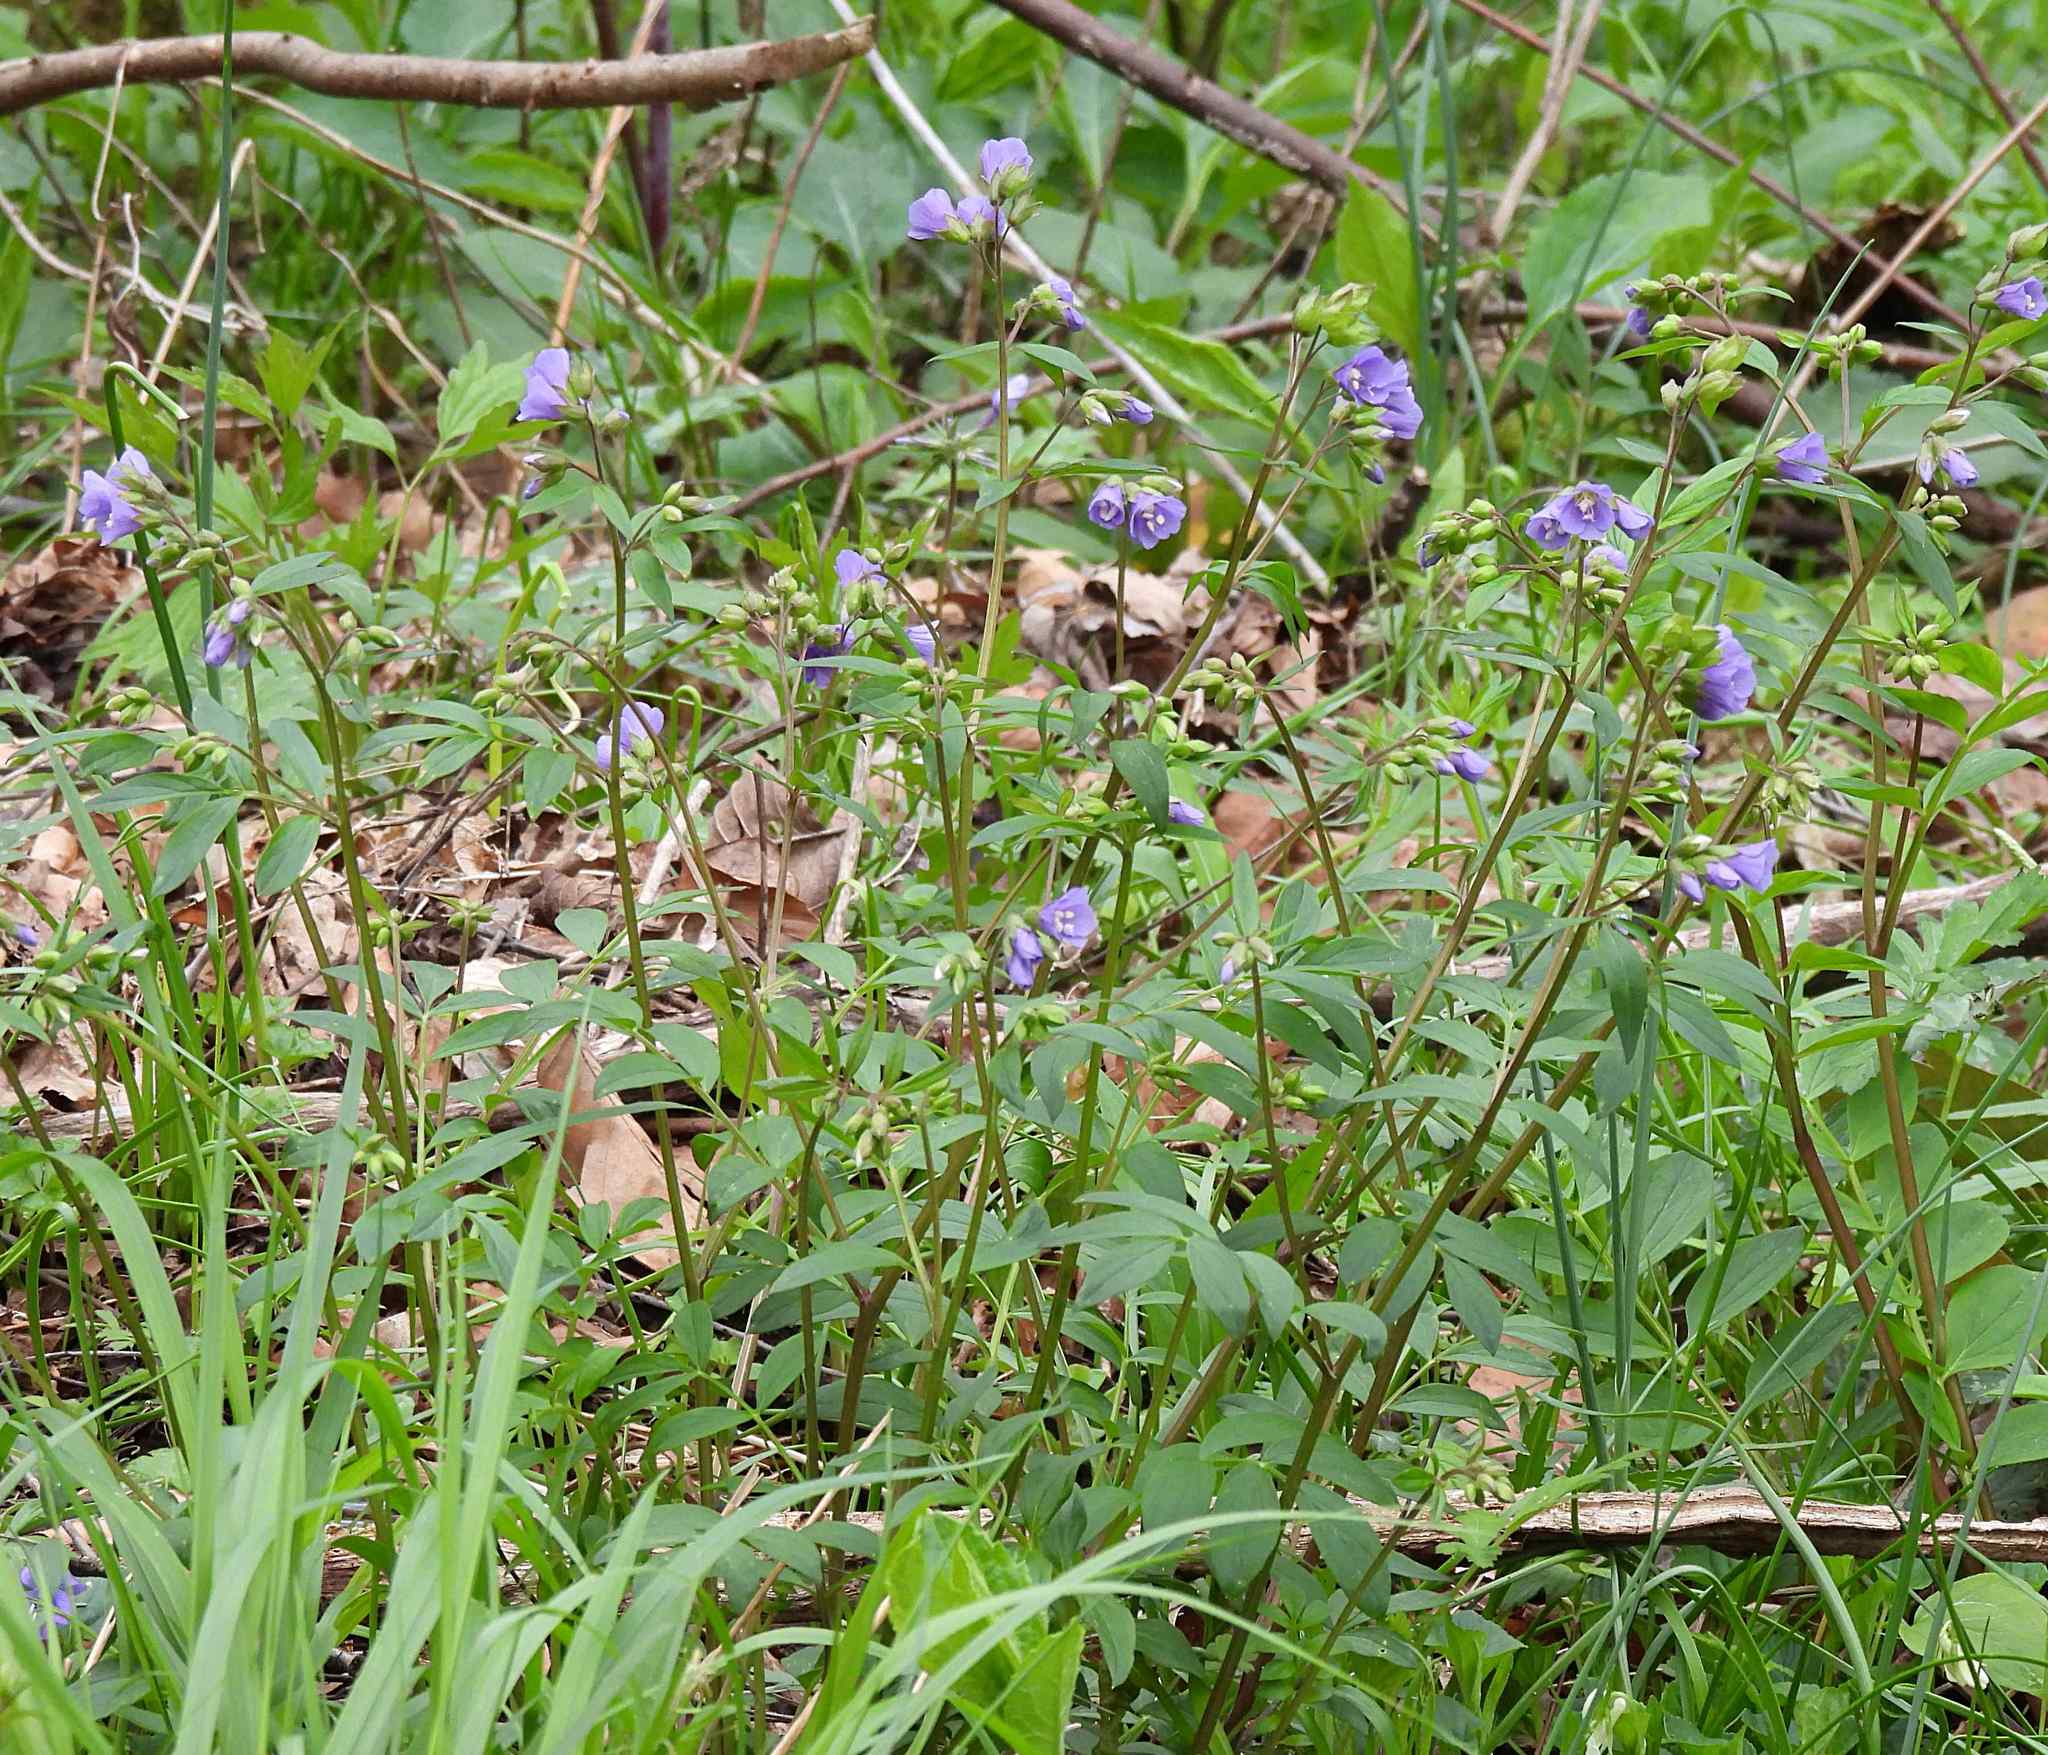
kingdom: Plantae
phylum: Tracheophyta
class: Magnoliopsida
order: Ericales
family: Polemoniaceae
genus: Polemonium
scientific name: Polemonium reptans
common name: Creeping jacob's-ladder
